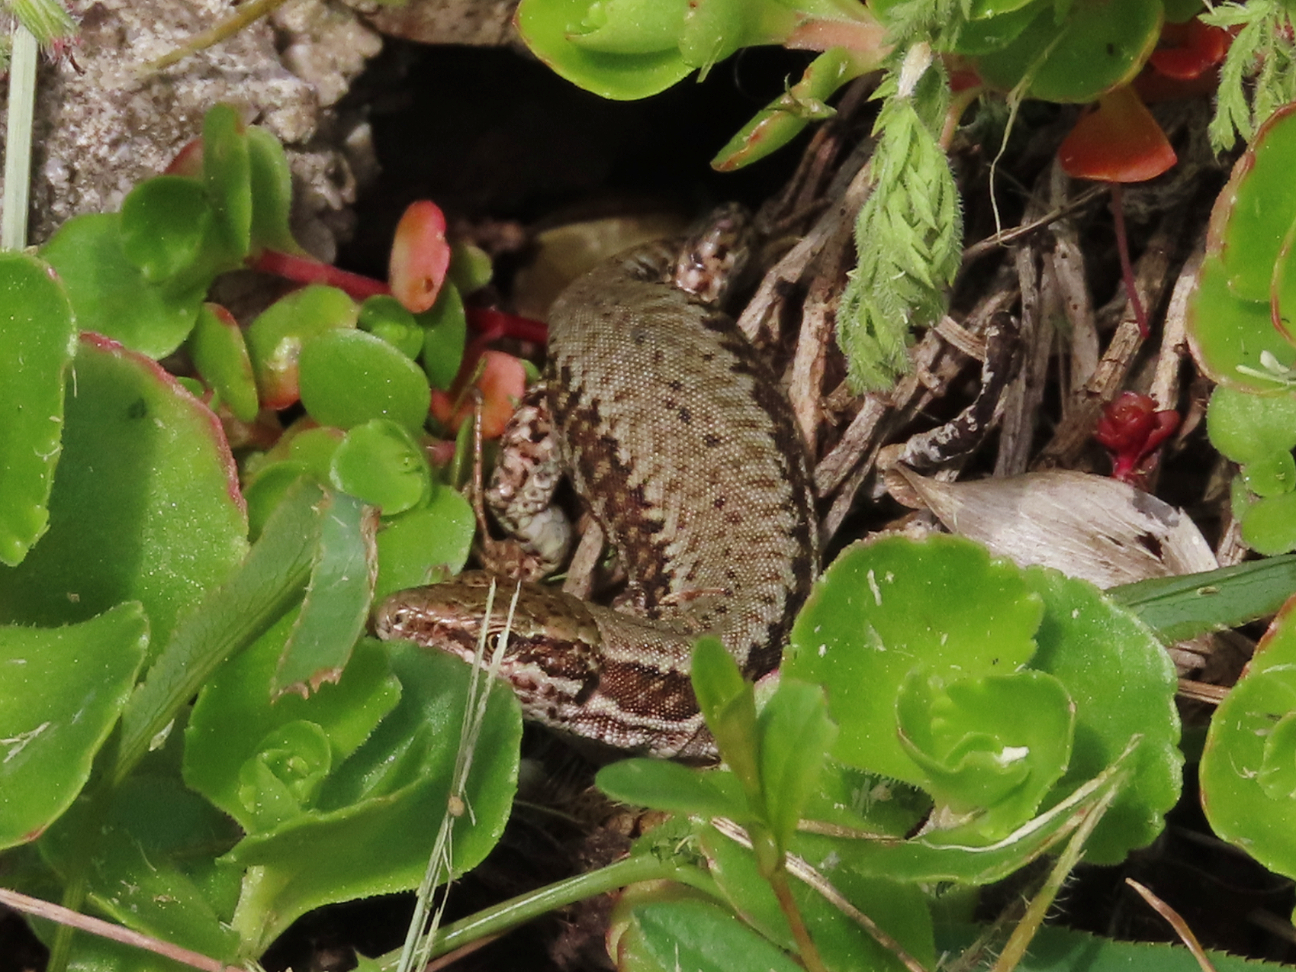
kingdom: Animalia
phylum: Chordata
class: Squamata
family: Lacertidae
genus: Podarcis
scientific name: Podarcis muralis
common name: Common wall lizard
